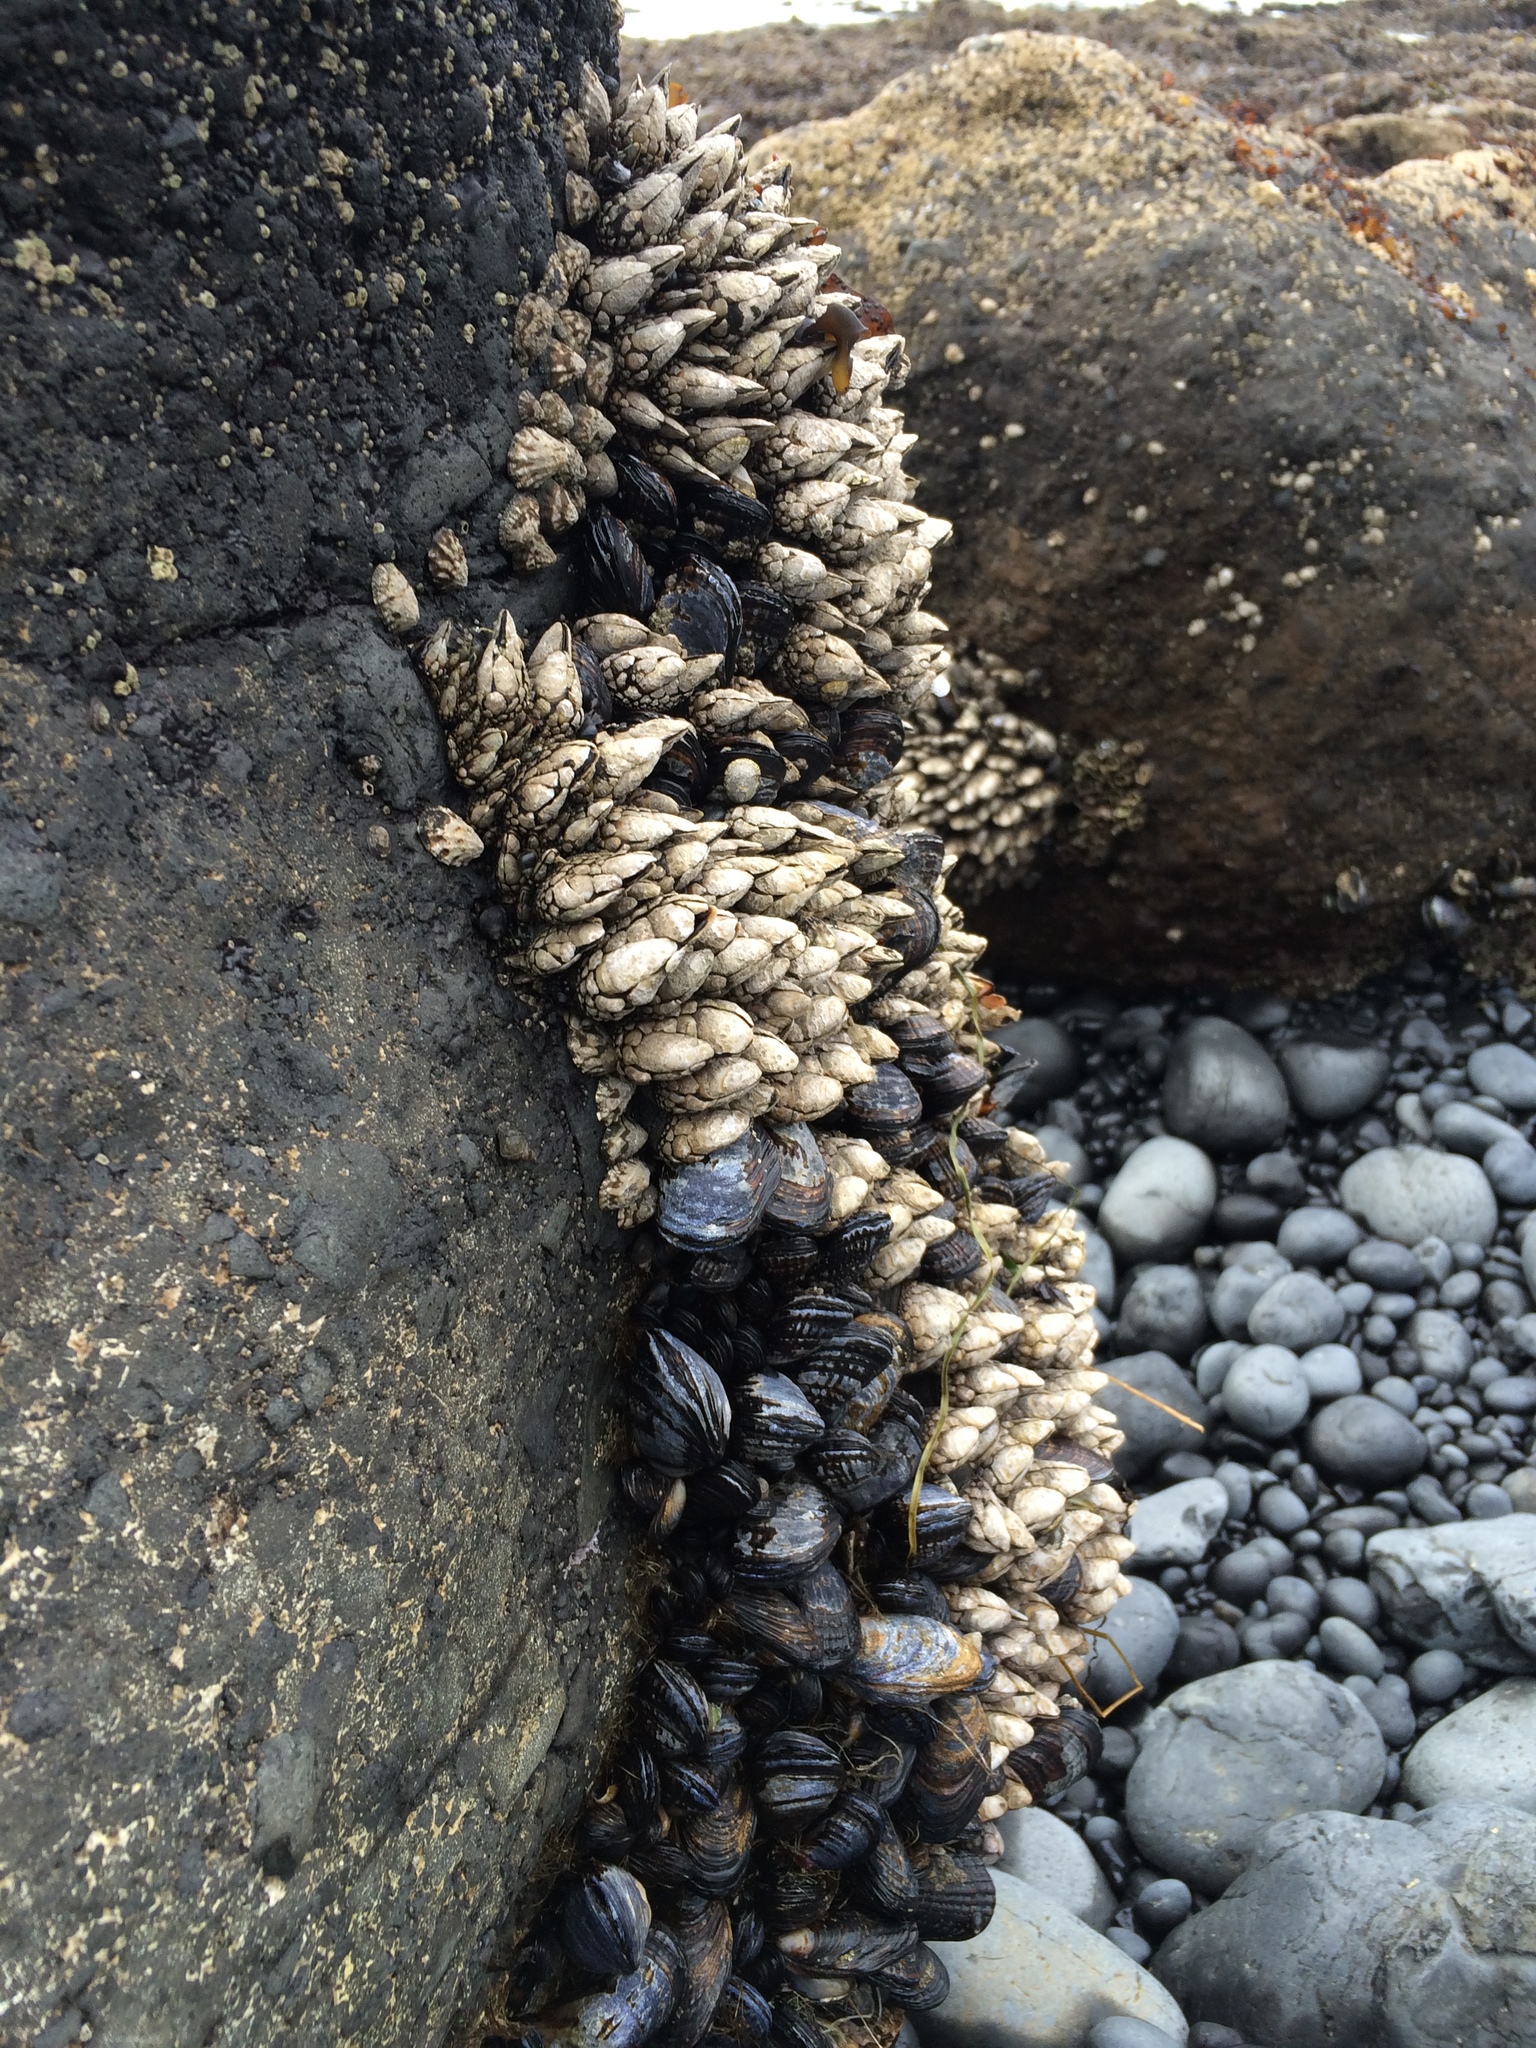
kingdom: Animalia
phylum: Arthropoda
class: Maxillopoda
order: Pedunculata
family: Pollicipedidae
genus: Pollicipes
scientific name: Pollicipes polymerus
